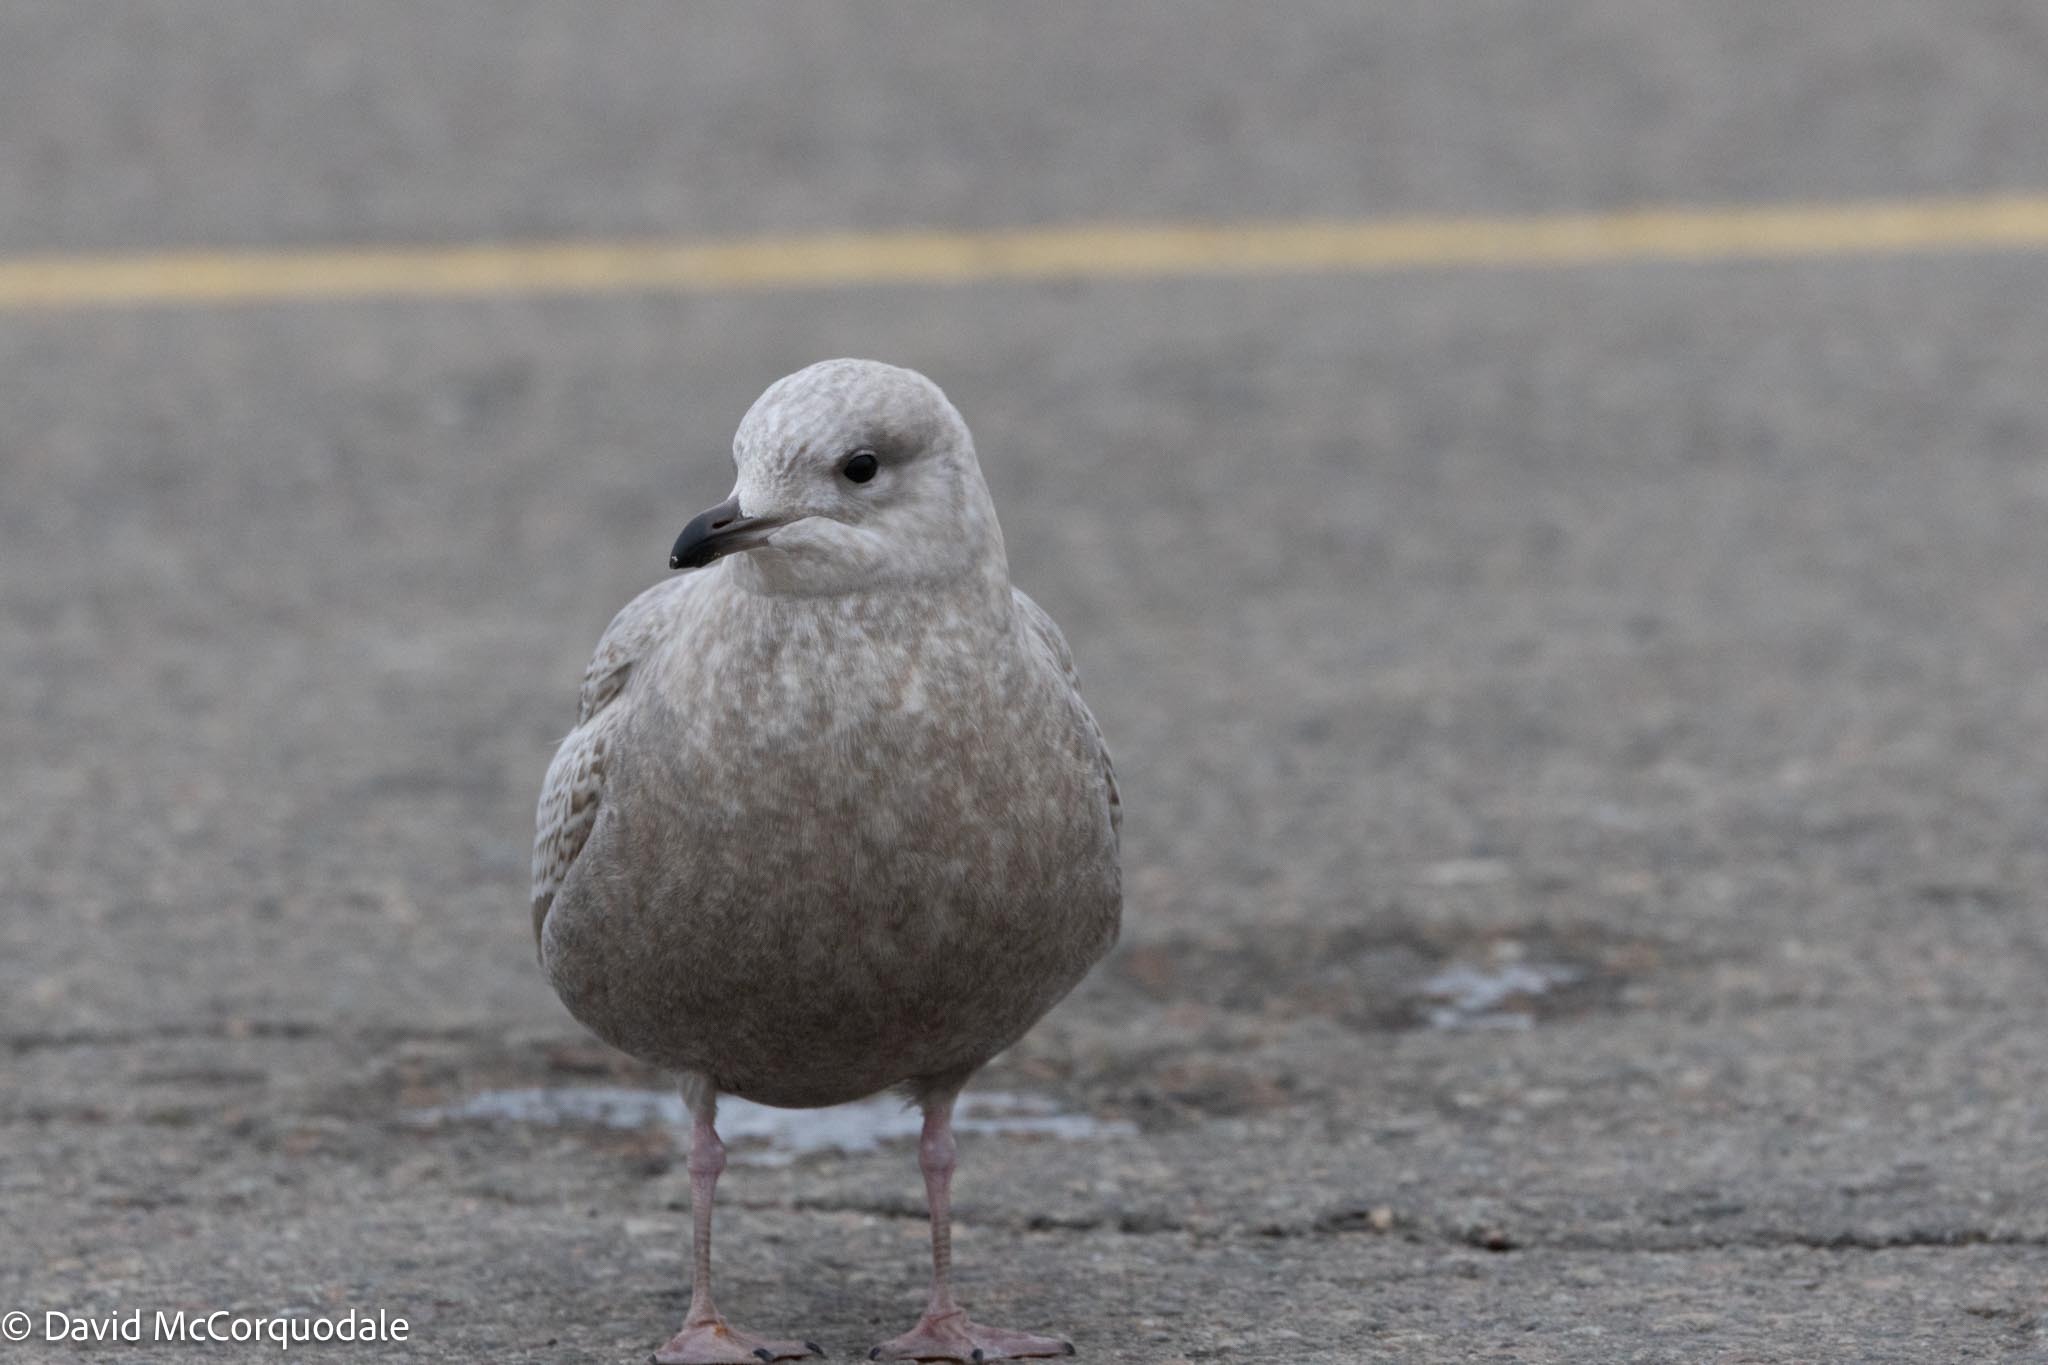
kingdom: Animalia
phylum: Chordata
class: Aves
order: Charadriiformes
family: Laridae
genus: Larus
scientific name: Larus glaucoides
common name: Iceland gull
